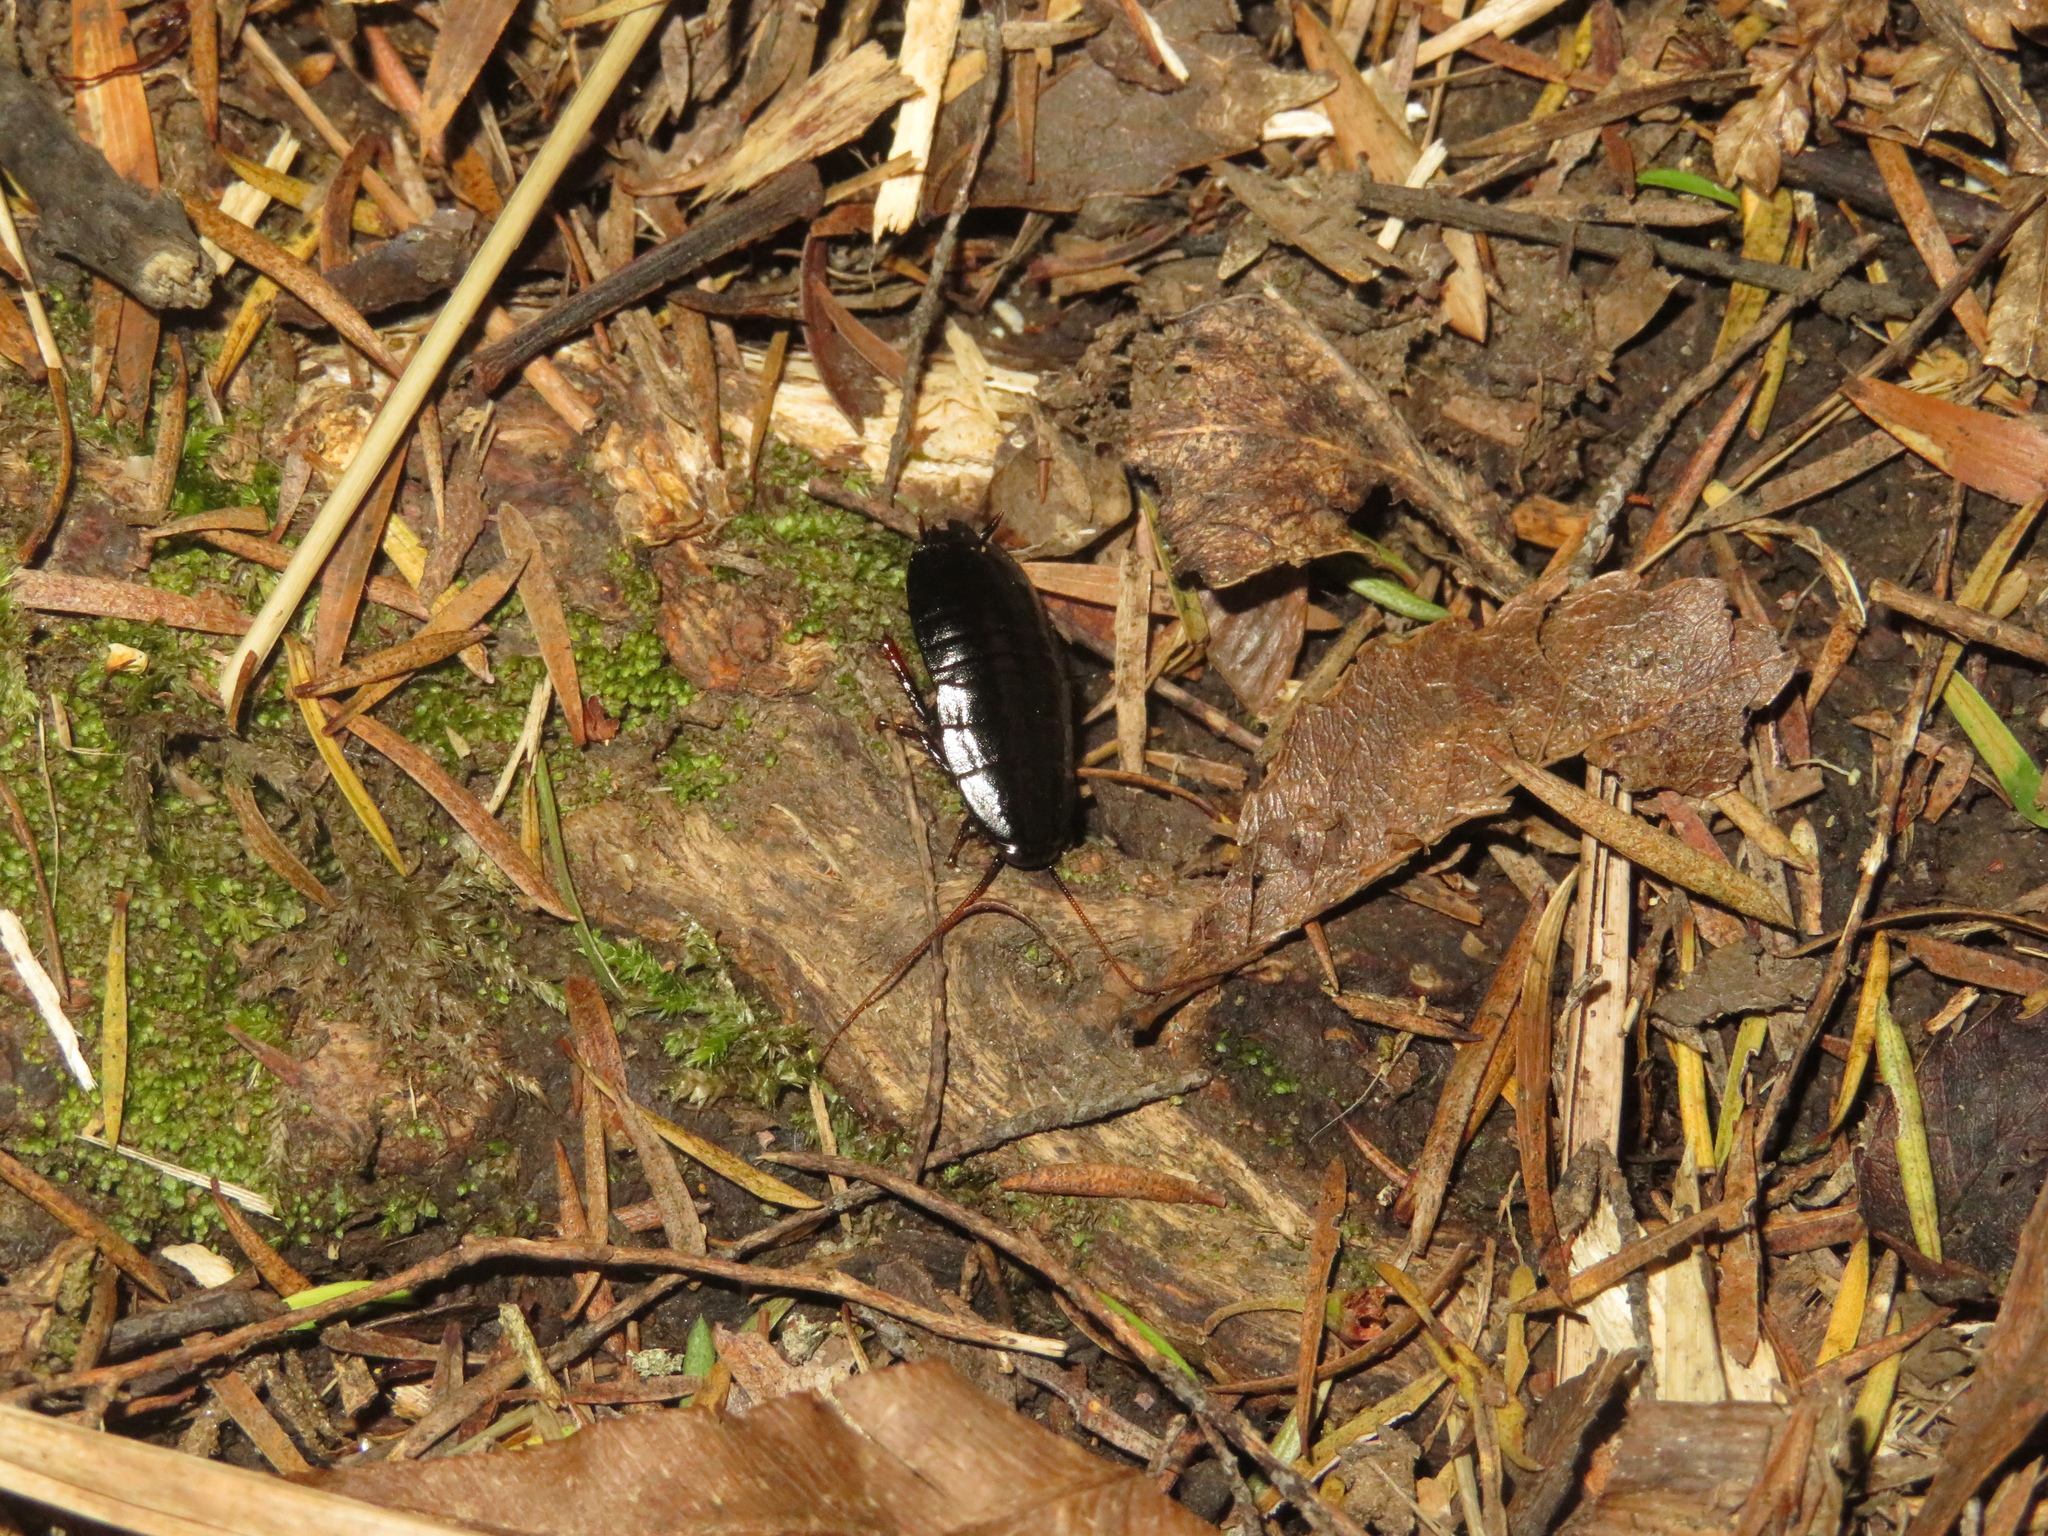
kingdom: Animalia
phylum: Arthropoda
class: Insecta
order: Blattodea
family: Blattidae
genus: Maoriblatta
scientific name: Maoriblatta rufoterminata
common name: Black cockroach
